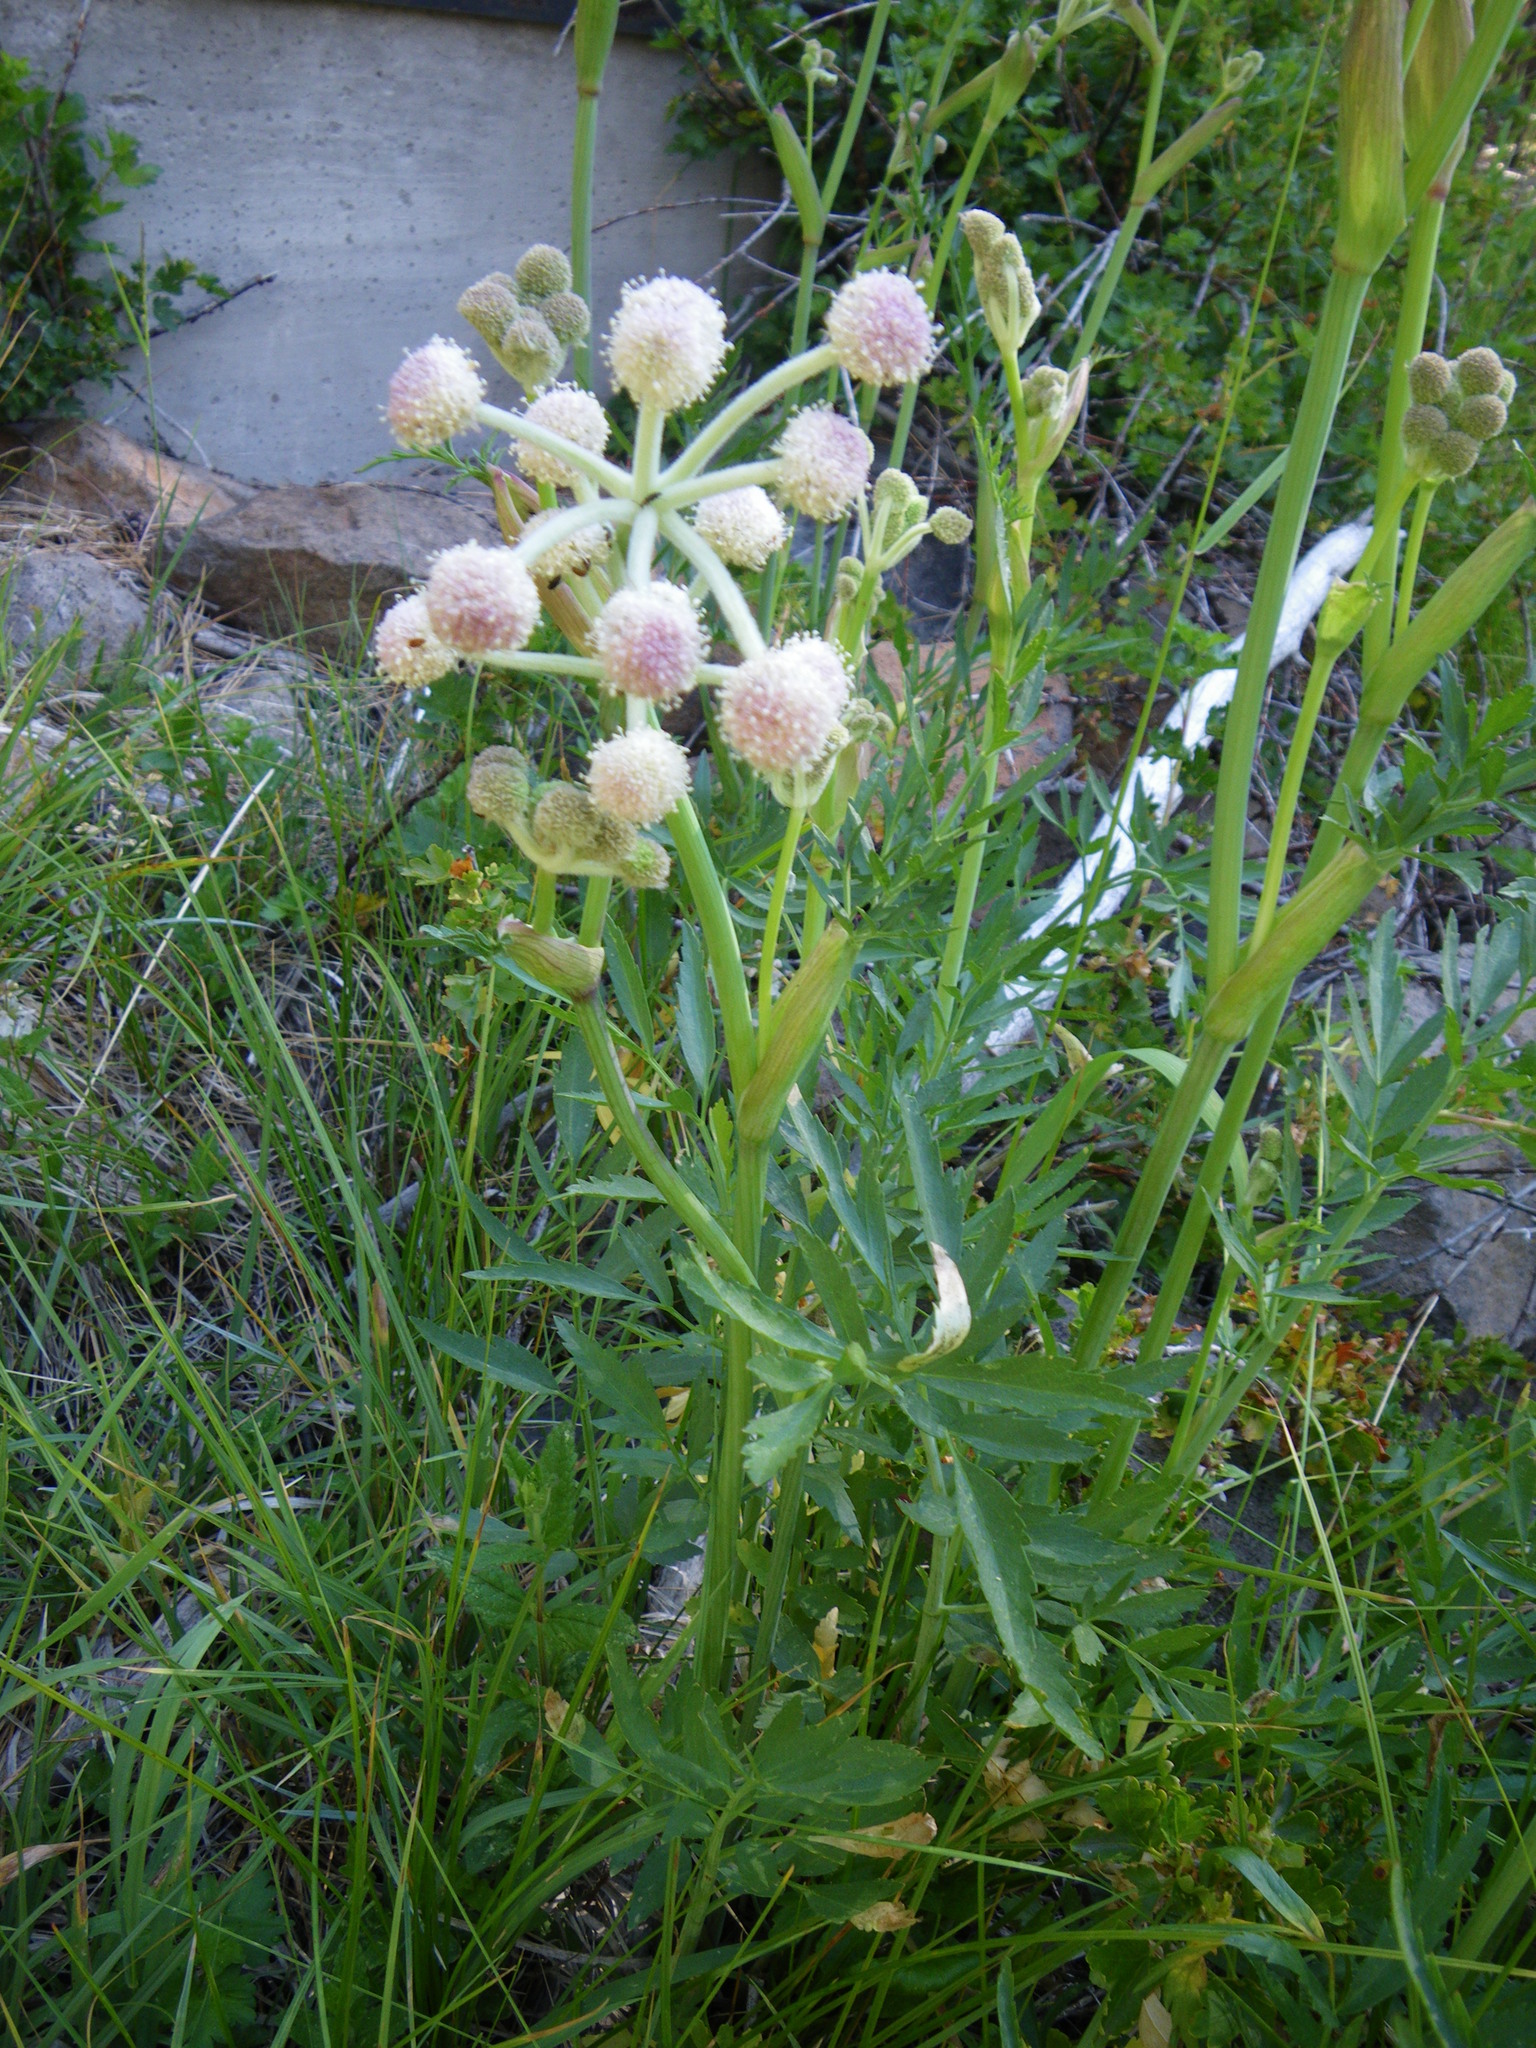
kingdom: Plantae
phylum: Tracheophyta
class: Magnoliopsida
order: Apiales
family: Apiaceae
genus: Angelica
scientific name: Angelica capitellata
